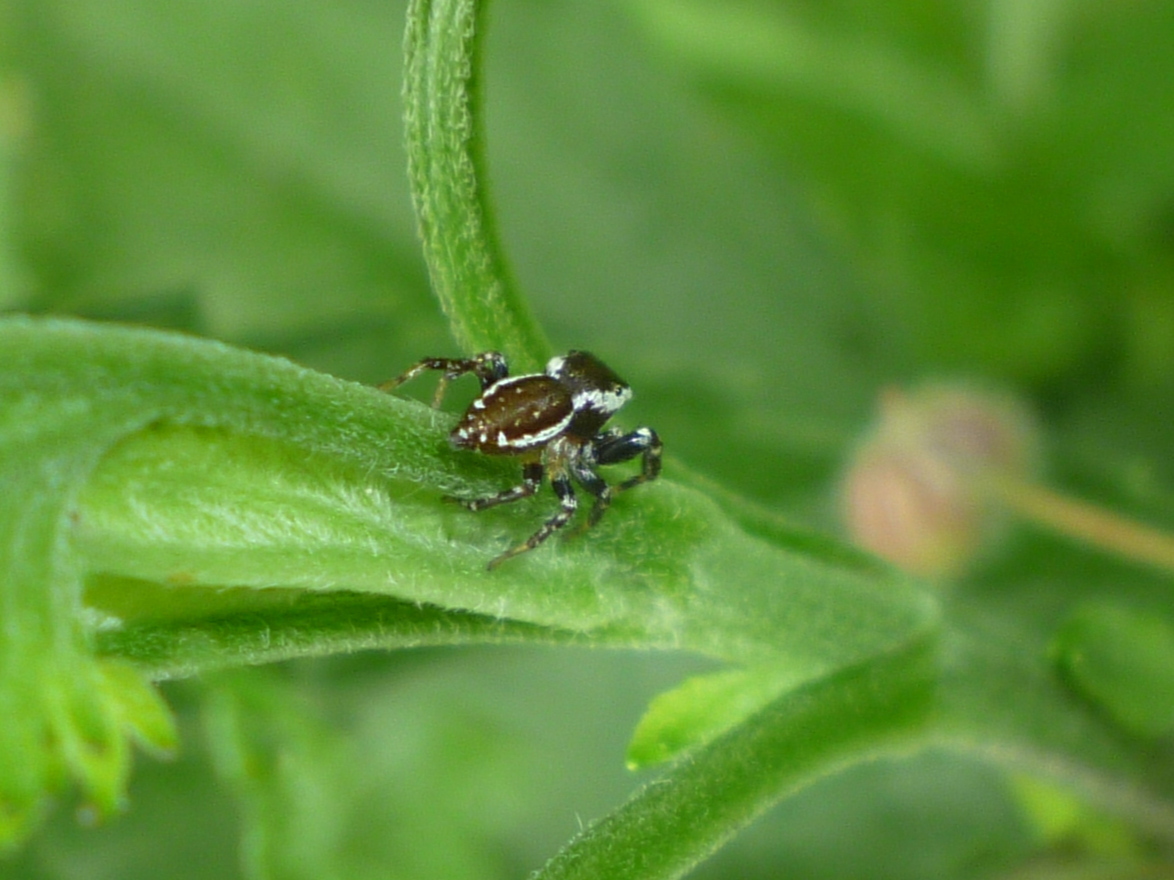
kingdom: Animalia
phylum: Arthropoda
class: Arachnida
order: Araneae
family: Salticidae
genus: Pelegrina
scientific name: Pelegrina proterva
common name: Common white-cheeked jumping spider
